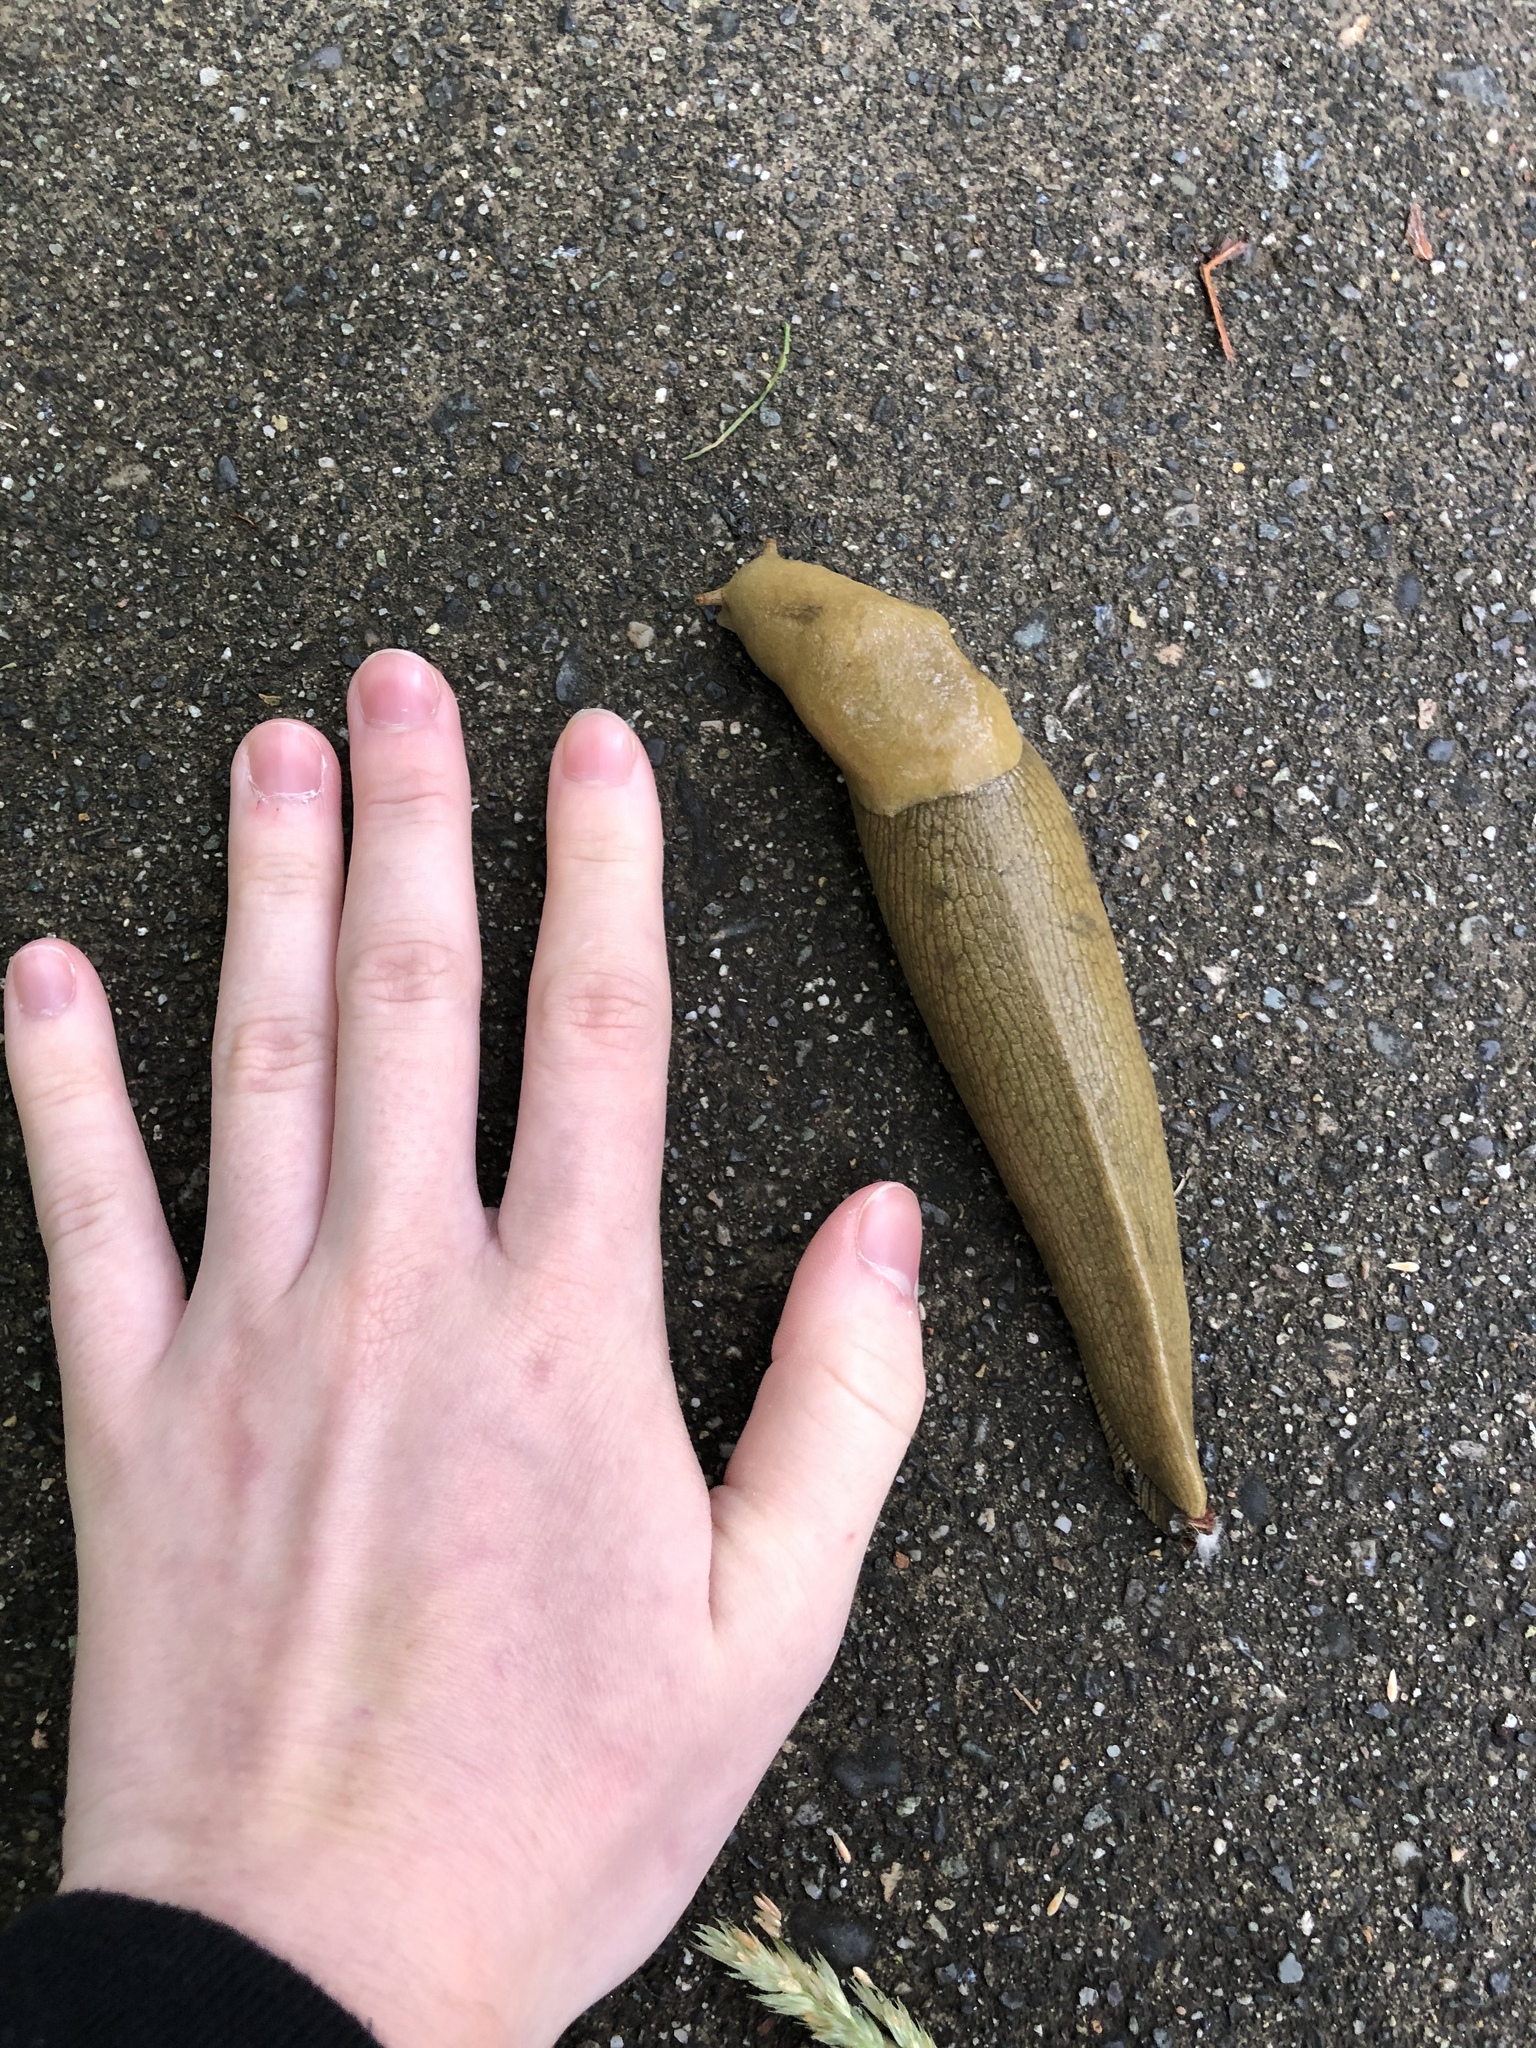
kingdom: Animalia
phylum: Mollusca
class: Gastropoda
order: Stylommatophora
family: Ariolimacidae
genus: Ariolimax
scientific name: Ariolimax columbianus
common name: Pacific banana slug
